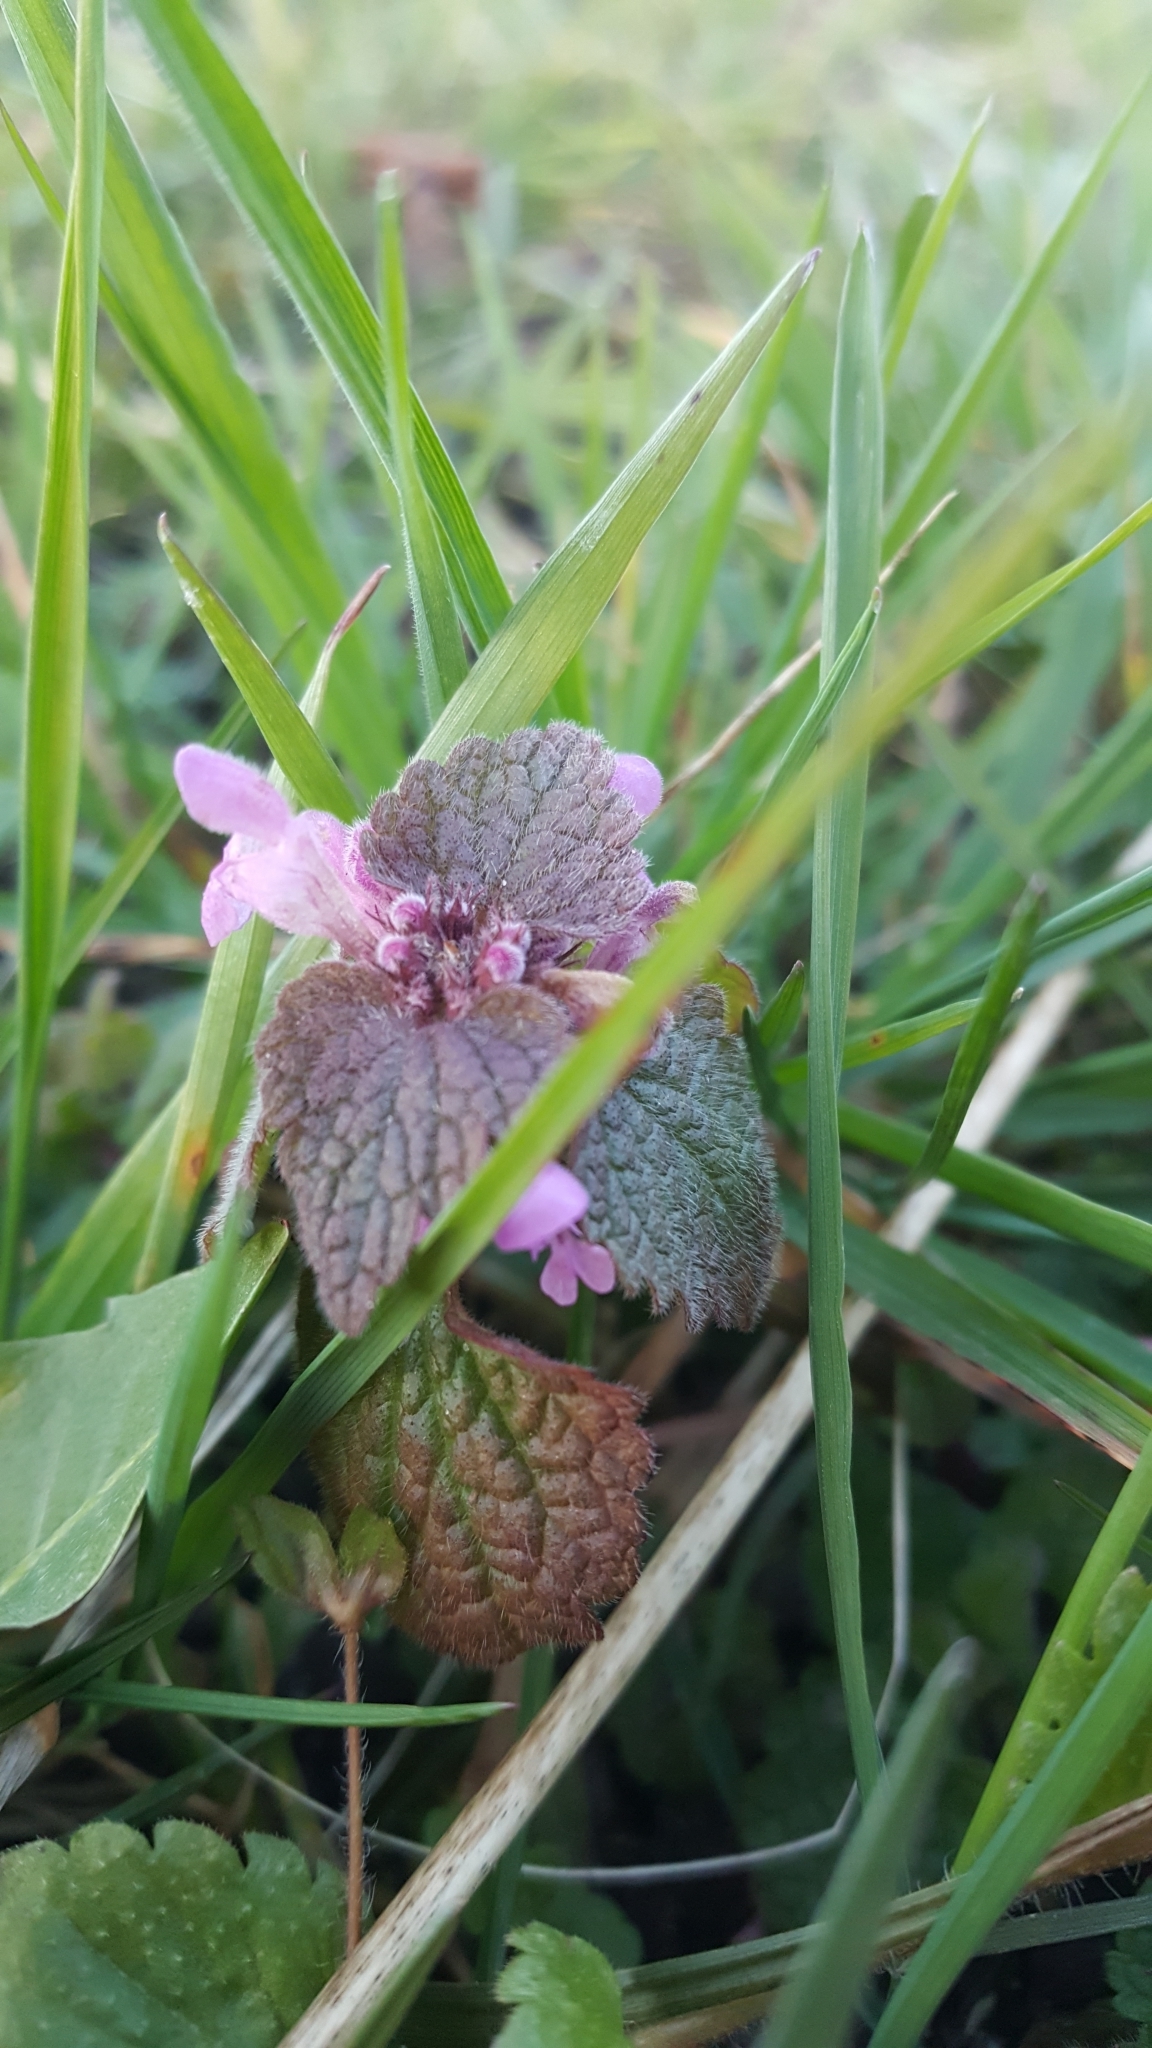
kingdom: Plantae
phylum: Tracheophyta
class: Magnoliopsida
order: Lamiales
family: Lamiaceae
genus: Lamium
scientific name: Lamium purpureum
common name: Red dead-nettle
